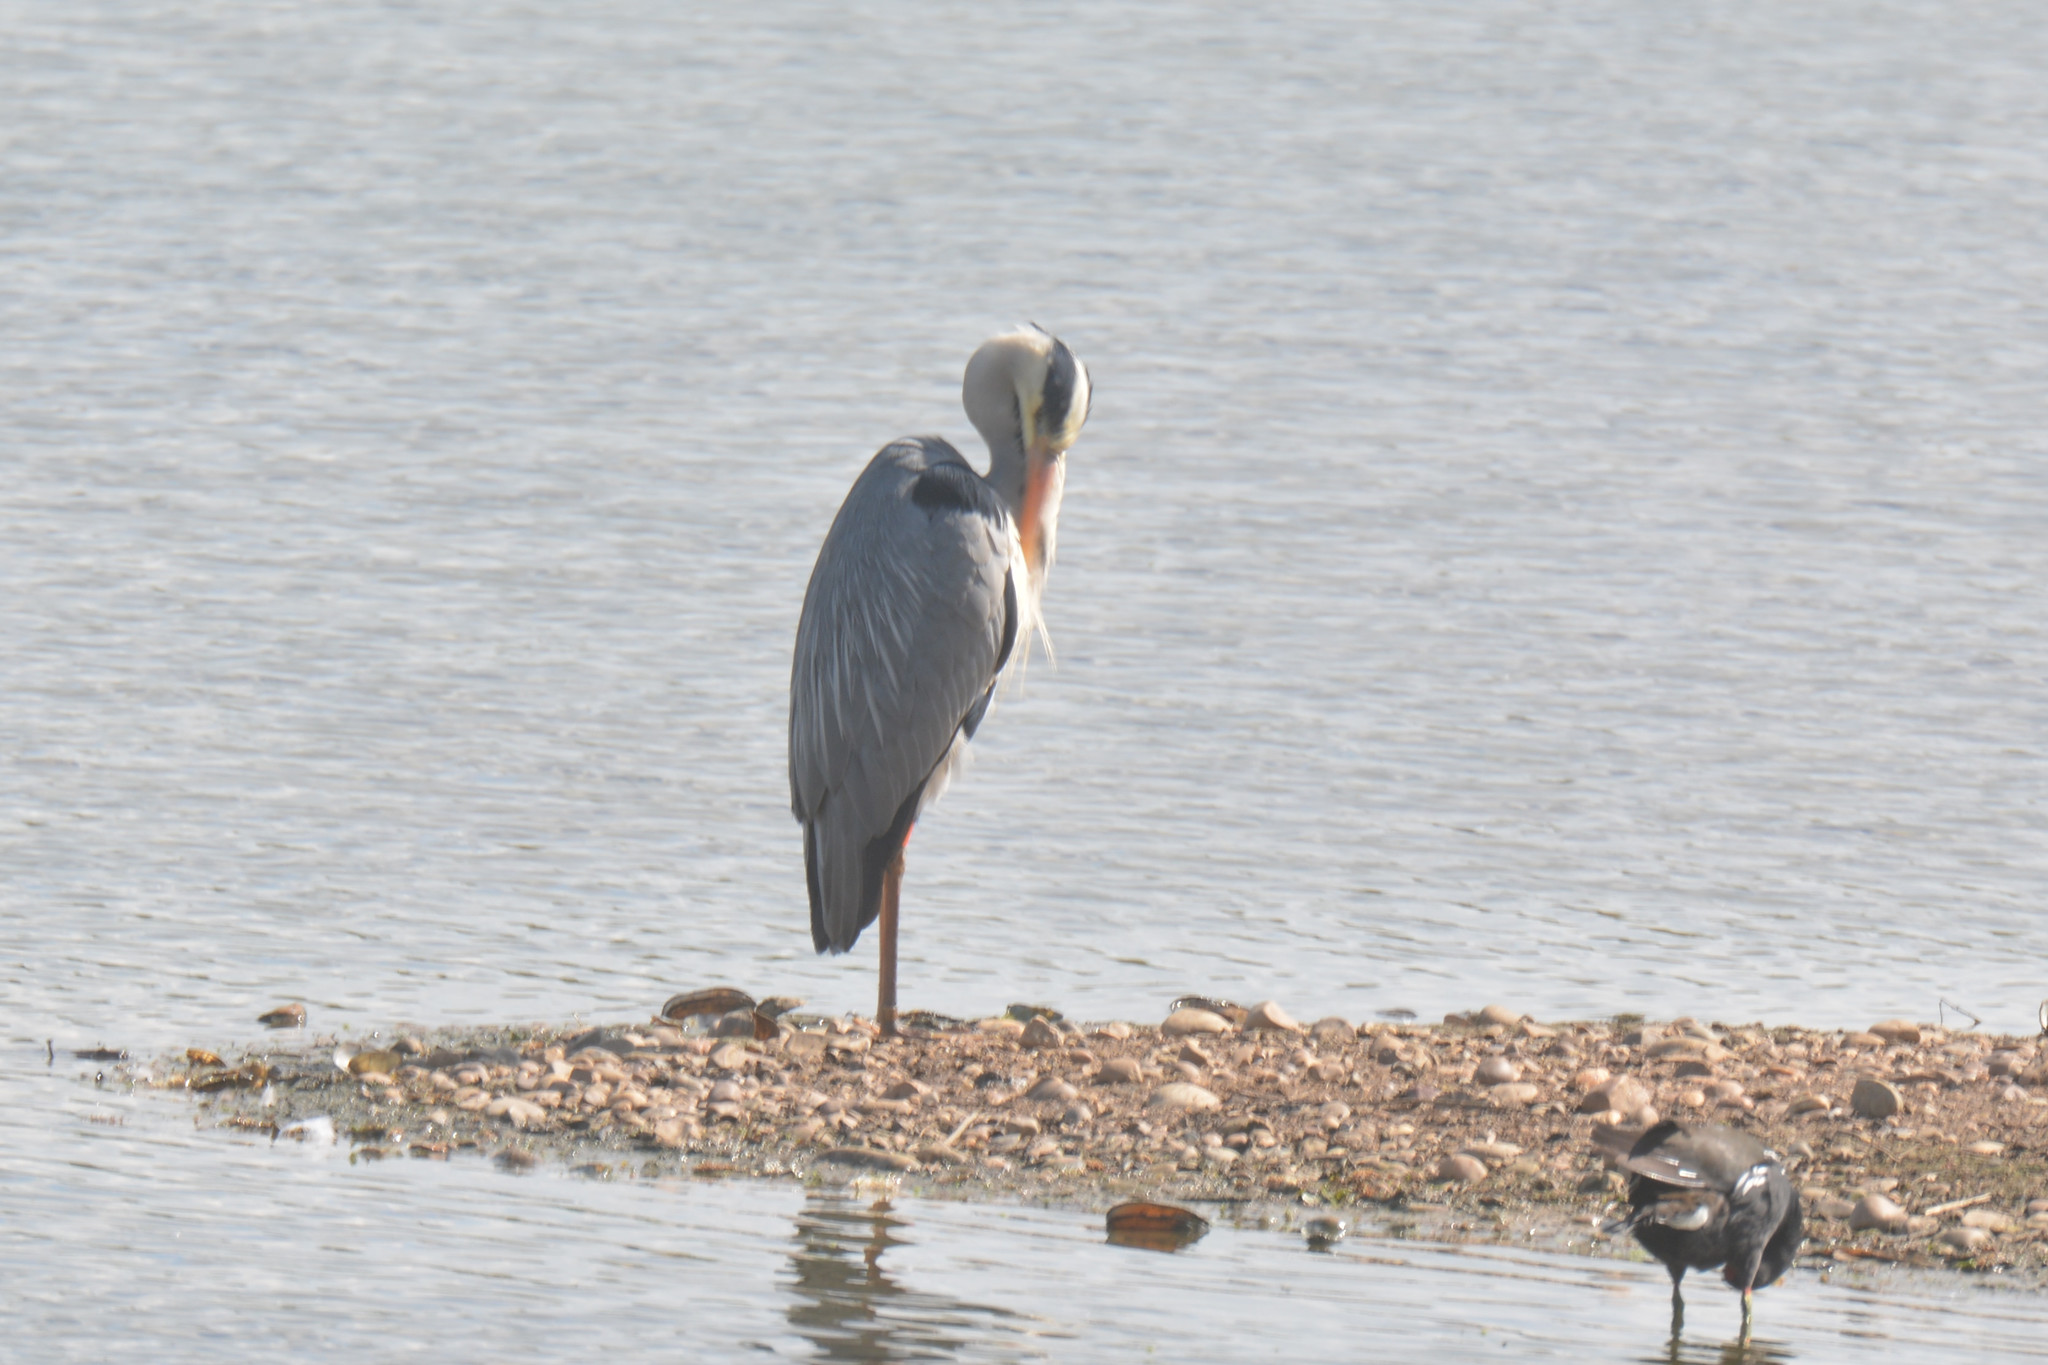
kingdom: Animalia
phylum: Chordata
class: Aves
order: Pelecaniformes
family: Ardeidae
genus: Ardea
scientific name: Ardea cinerea
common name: Grey heron
